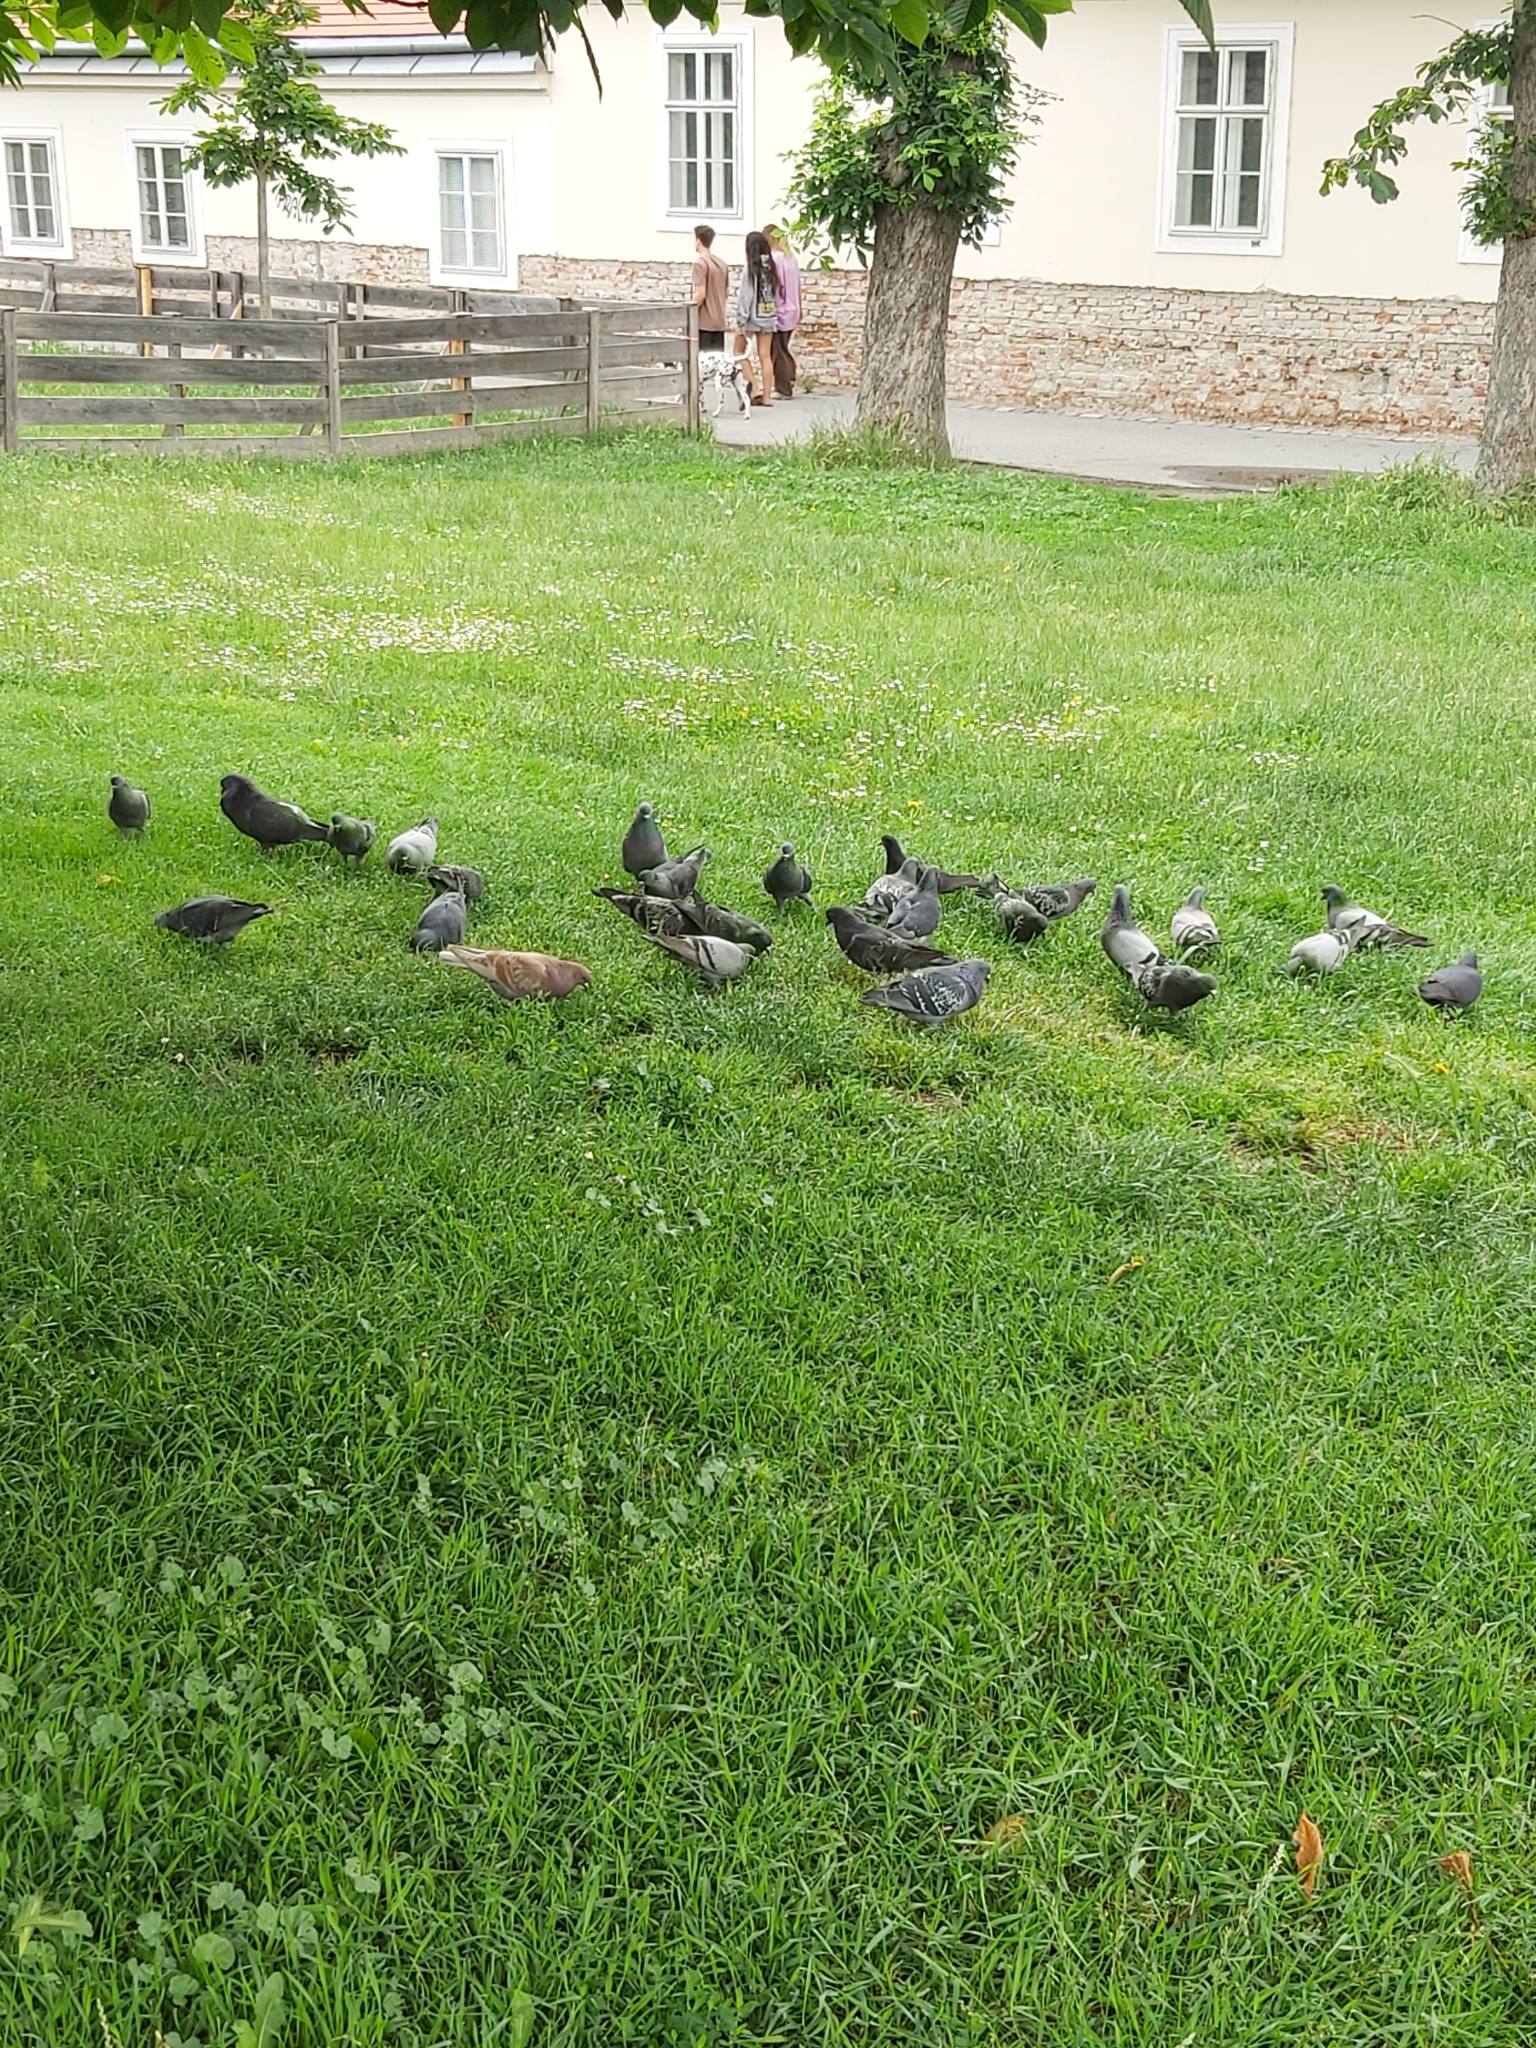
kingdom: Animalia
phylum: Chordata
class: Aves
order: Columbiformes
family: Columbidae
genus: Columba
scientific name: Columba livia
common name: Rock pigeon
